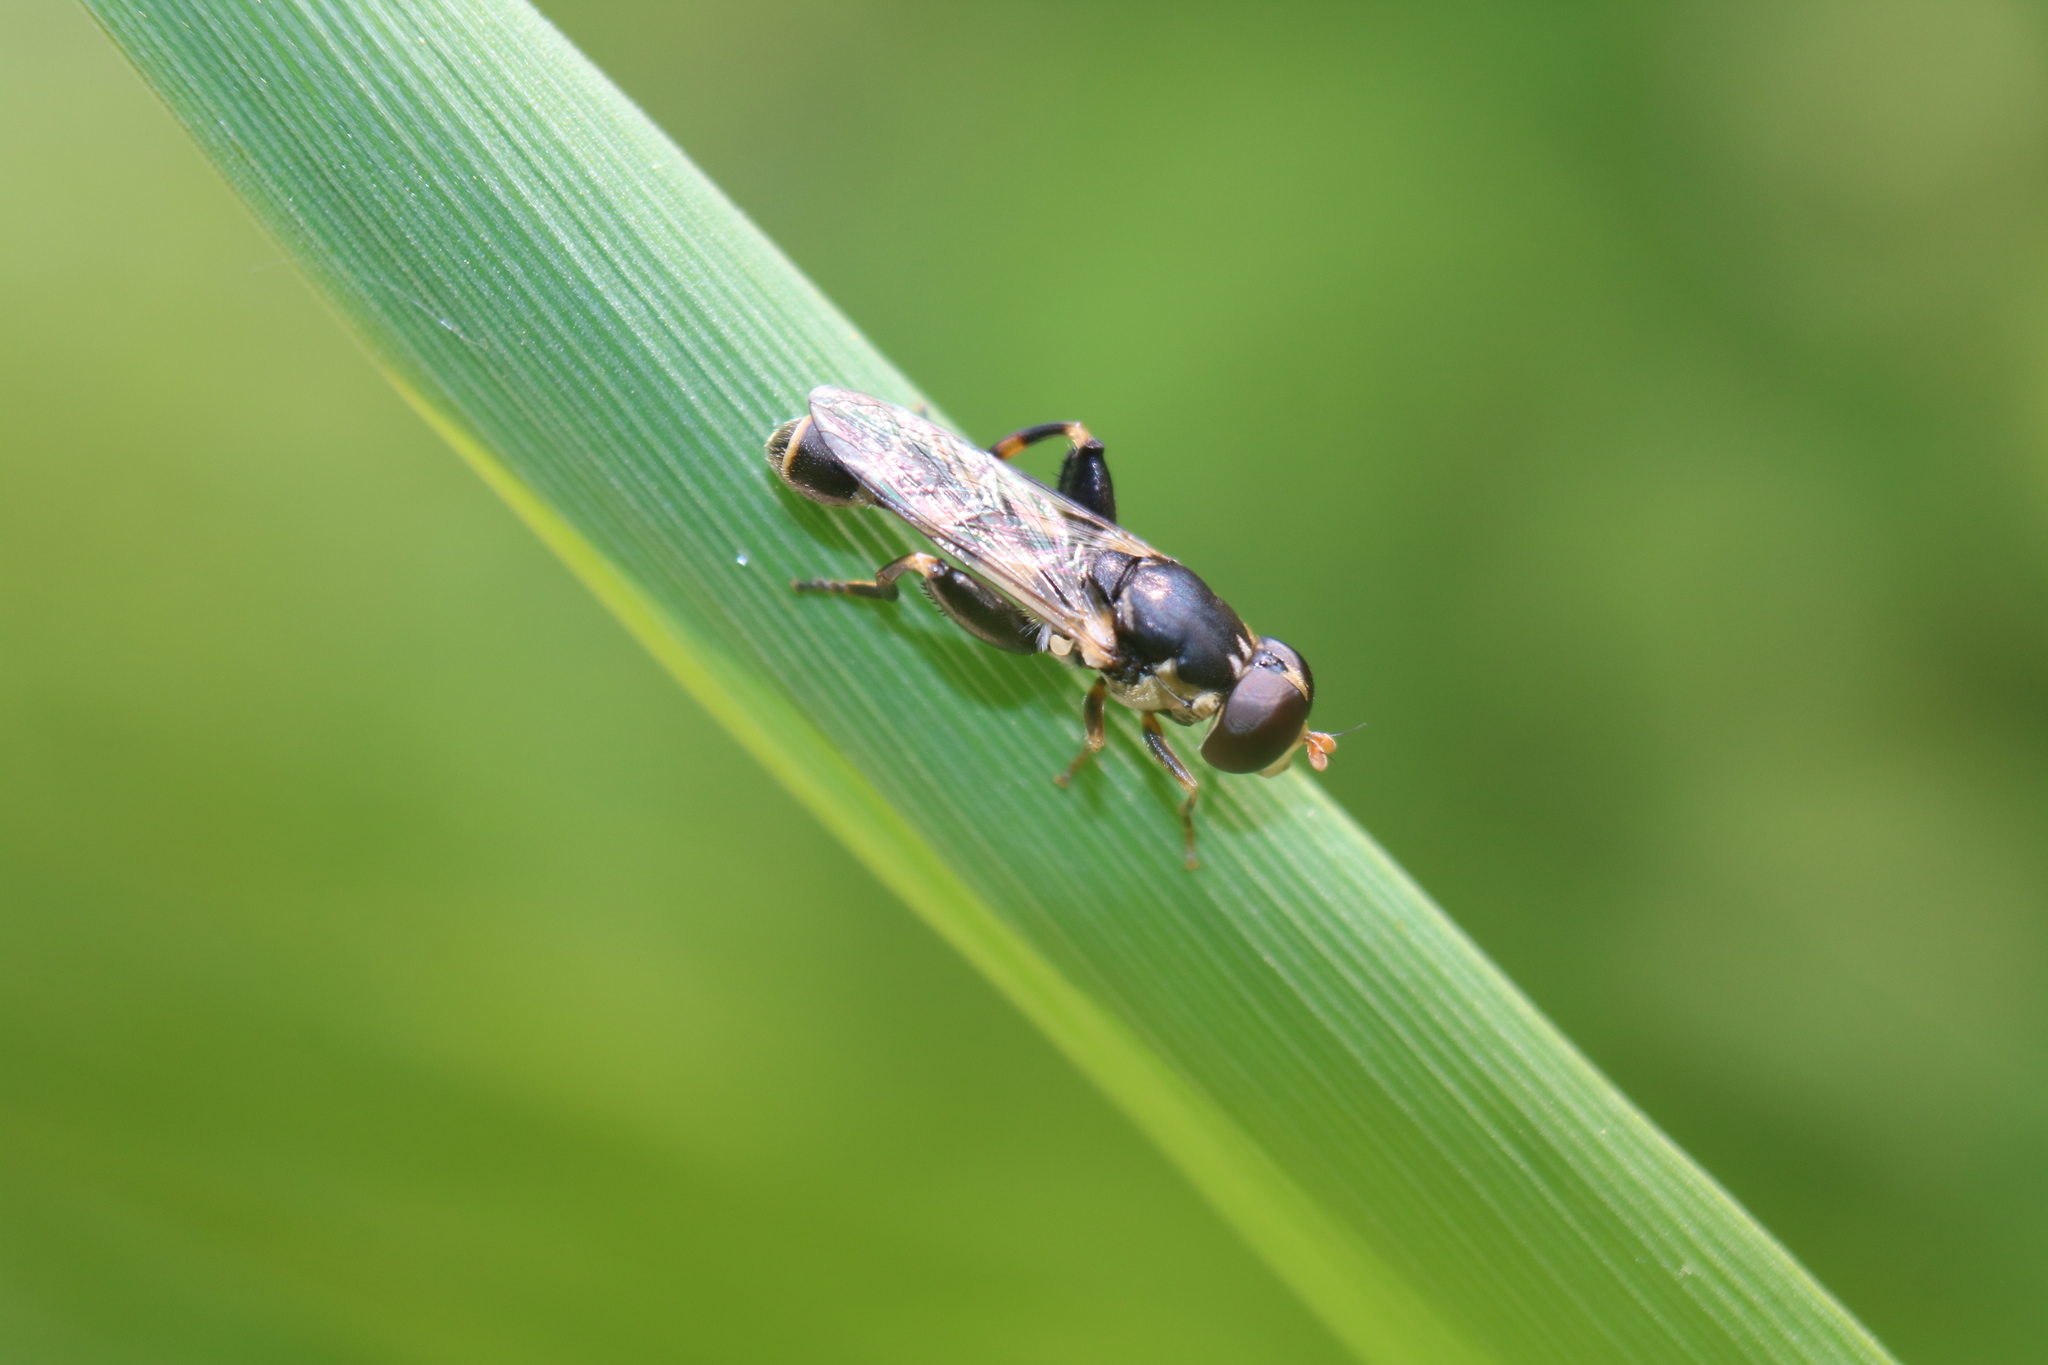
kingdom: Animalia
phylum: Arthropoda
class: Insecta
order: Diptera
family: Syrphidae
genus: Syritta
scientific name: Syritta pipiens
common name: Hover fly
